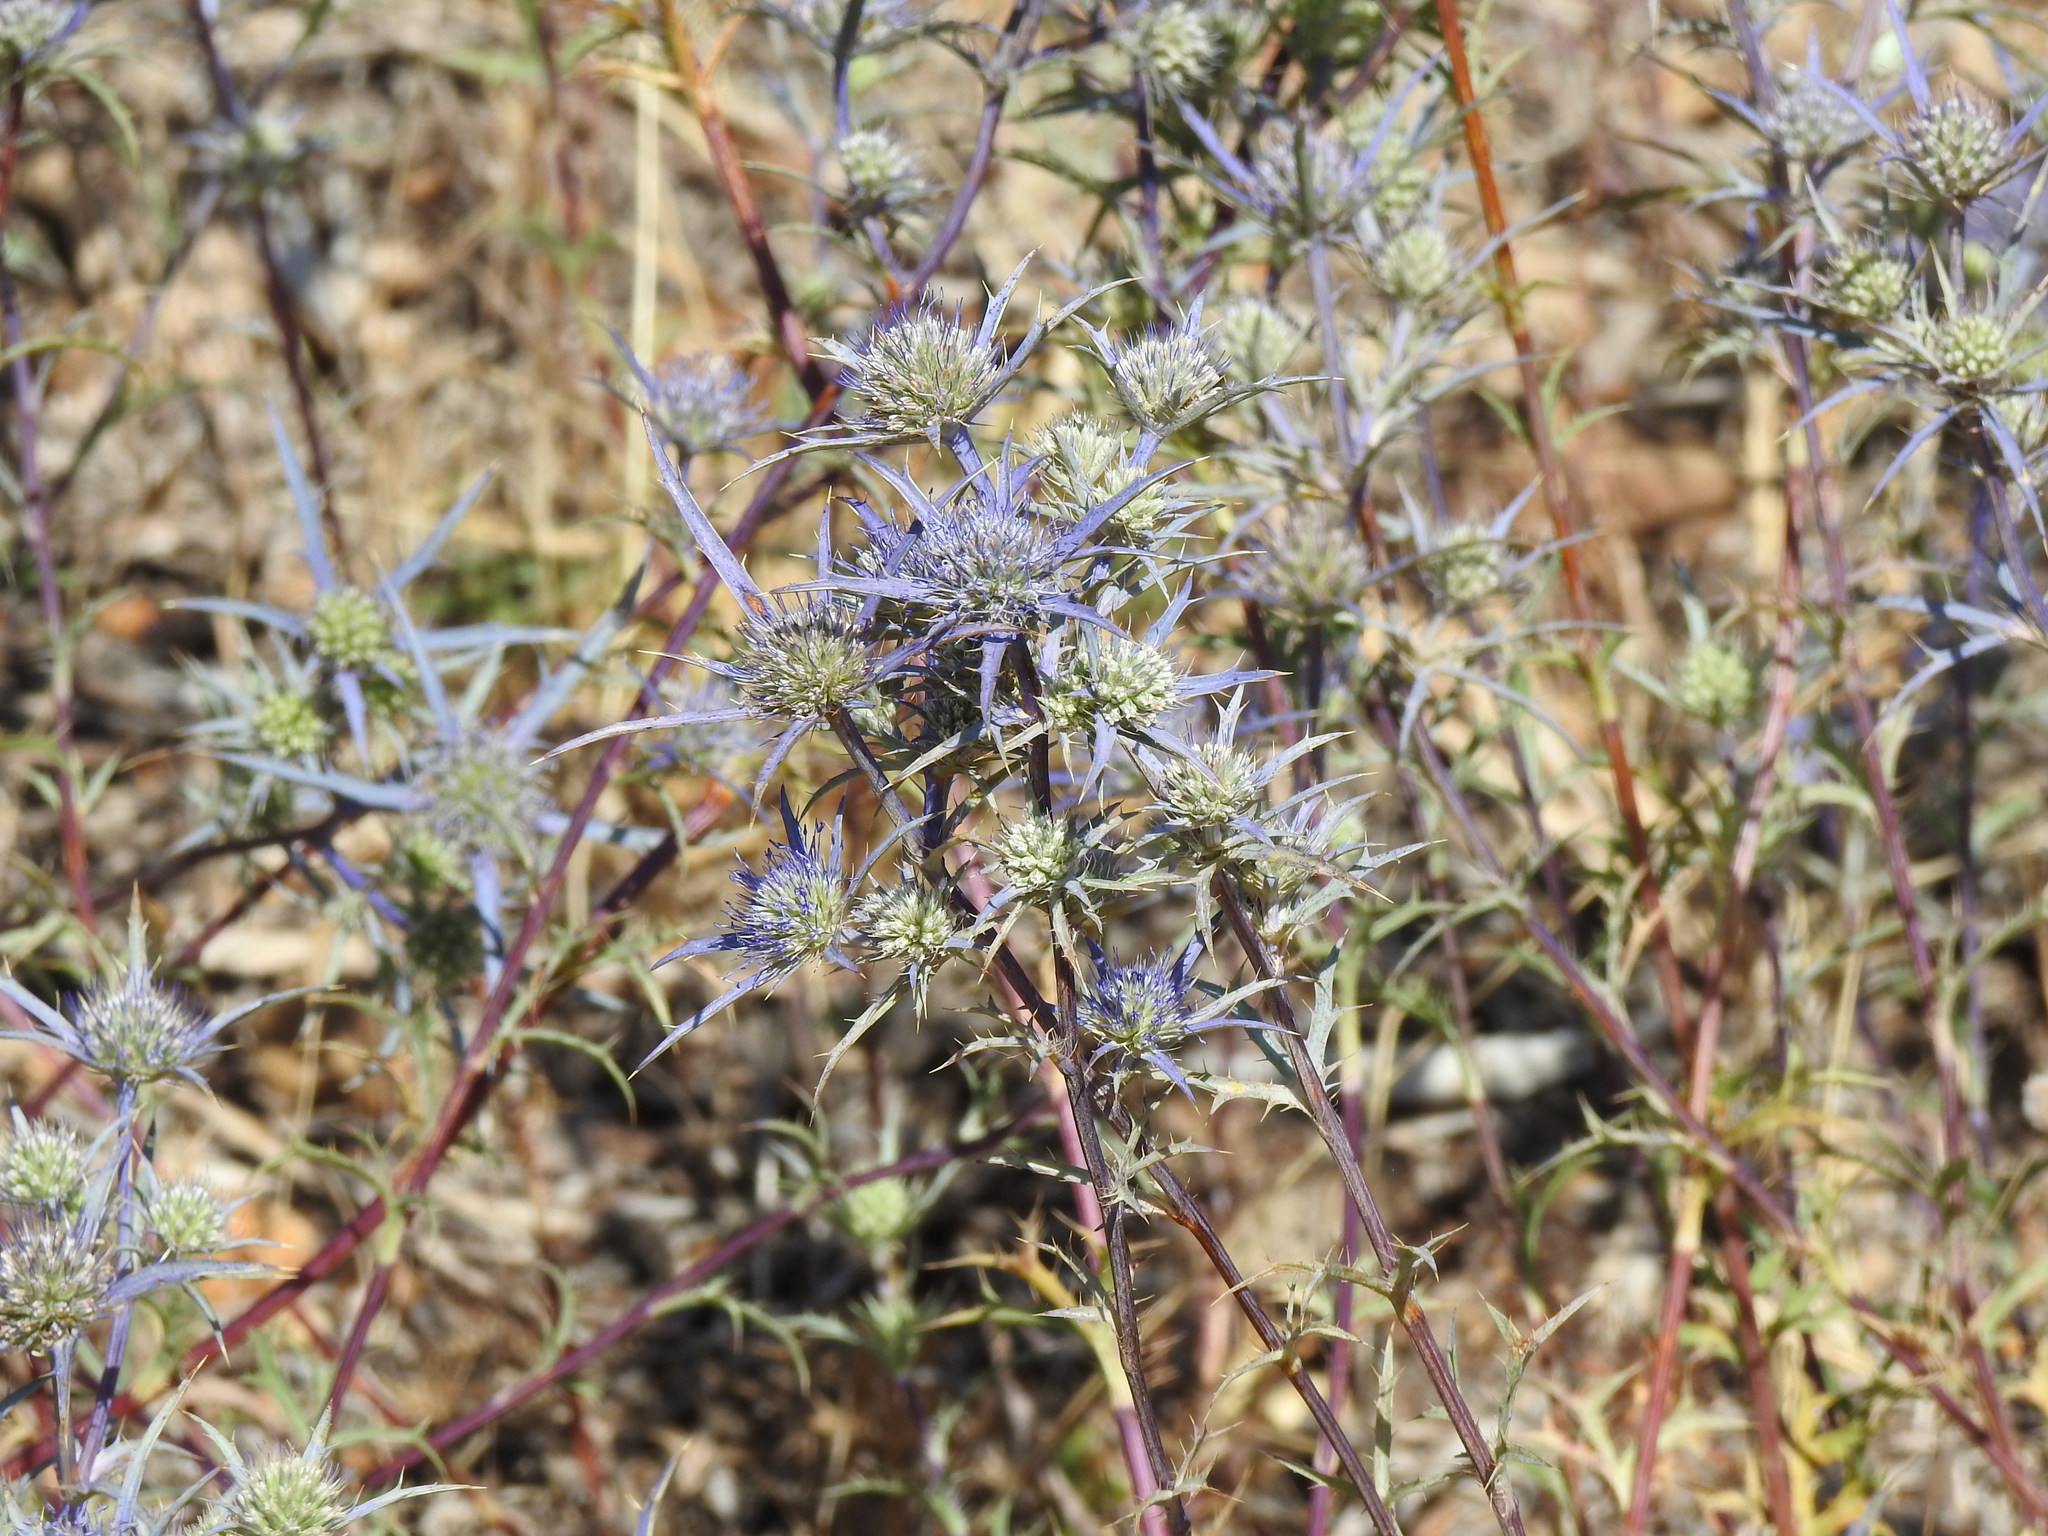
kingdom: Plantae
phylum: Tracheophyta
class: Magnoliopsida
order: Apiales
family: Apiaceae
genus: Eryngium
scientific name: Eryngium dilatatum
